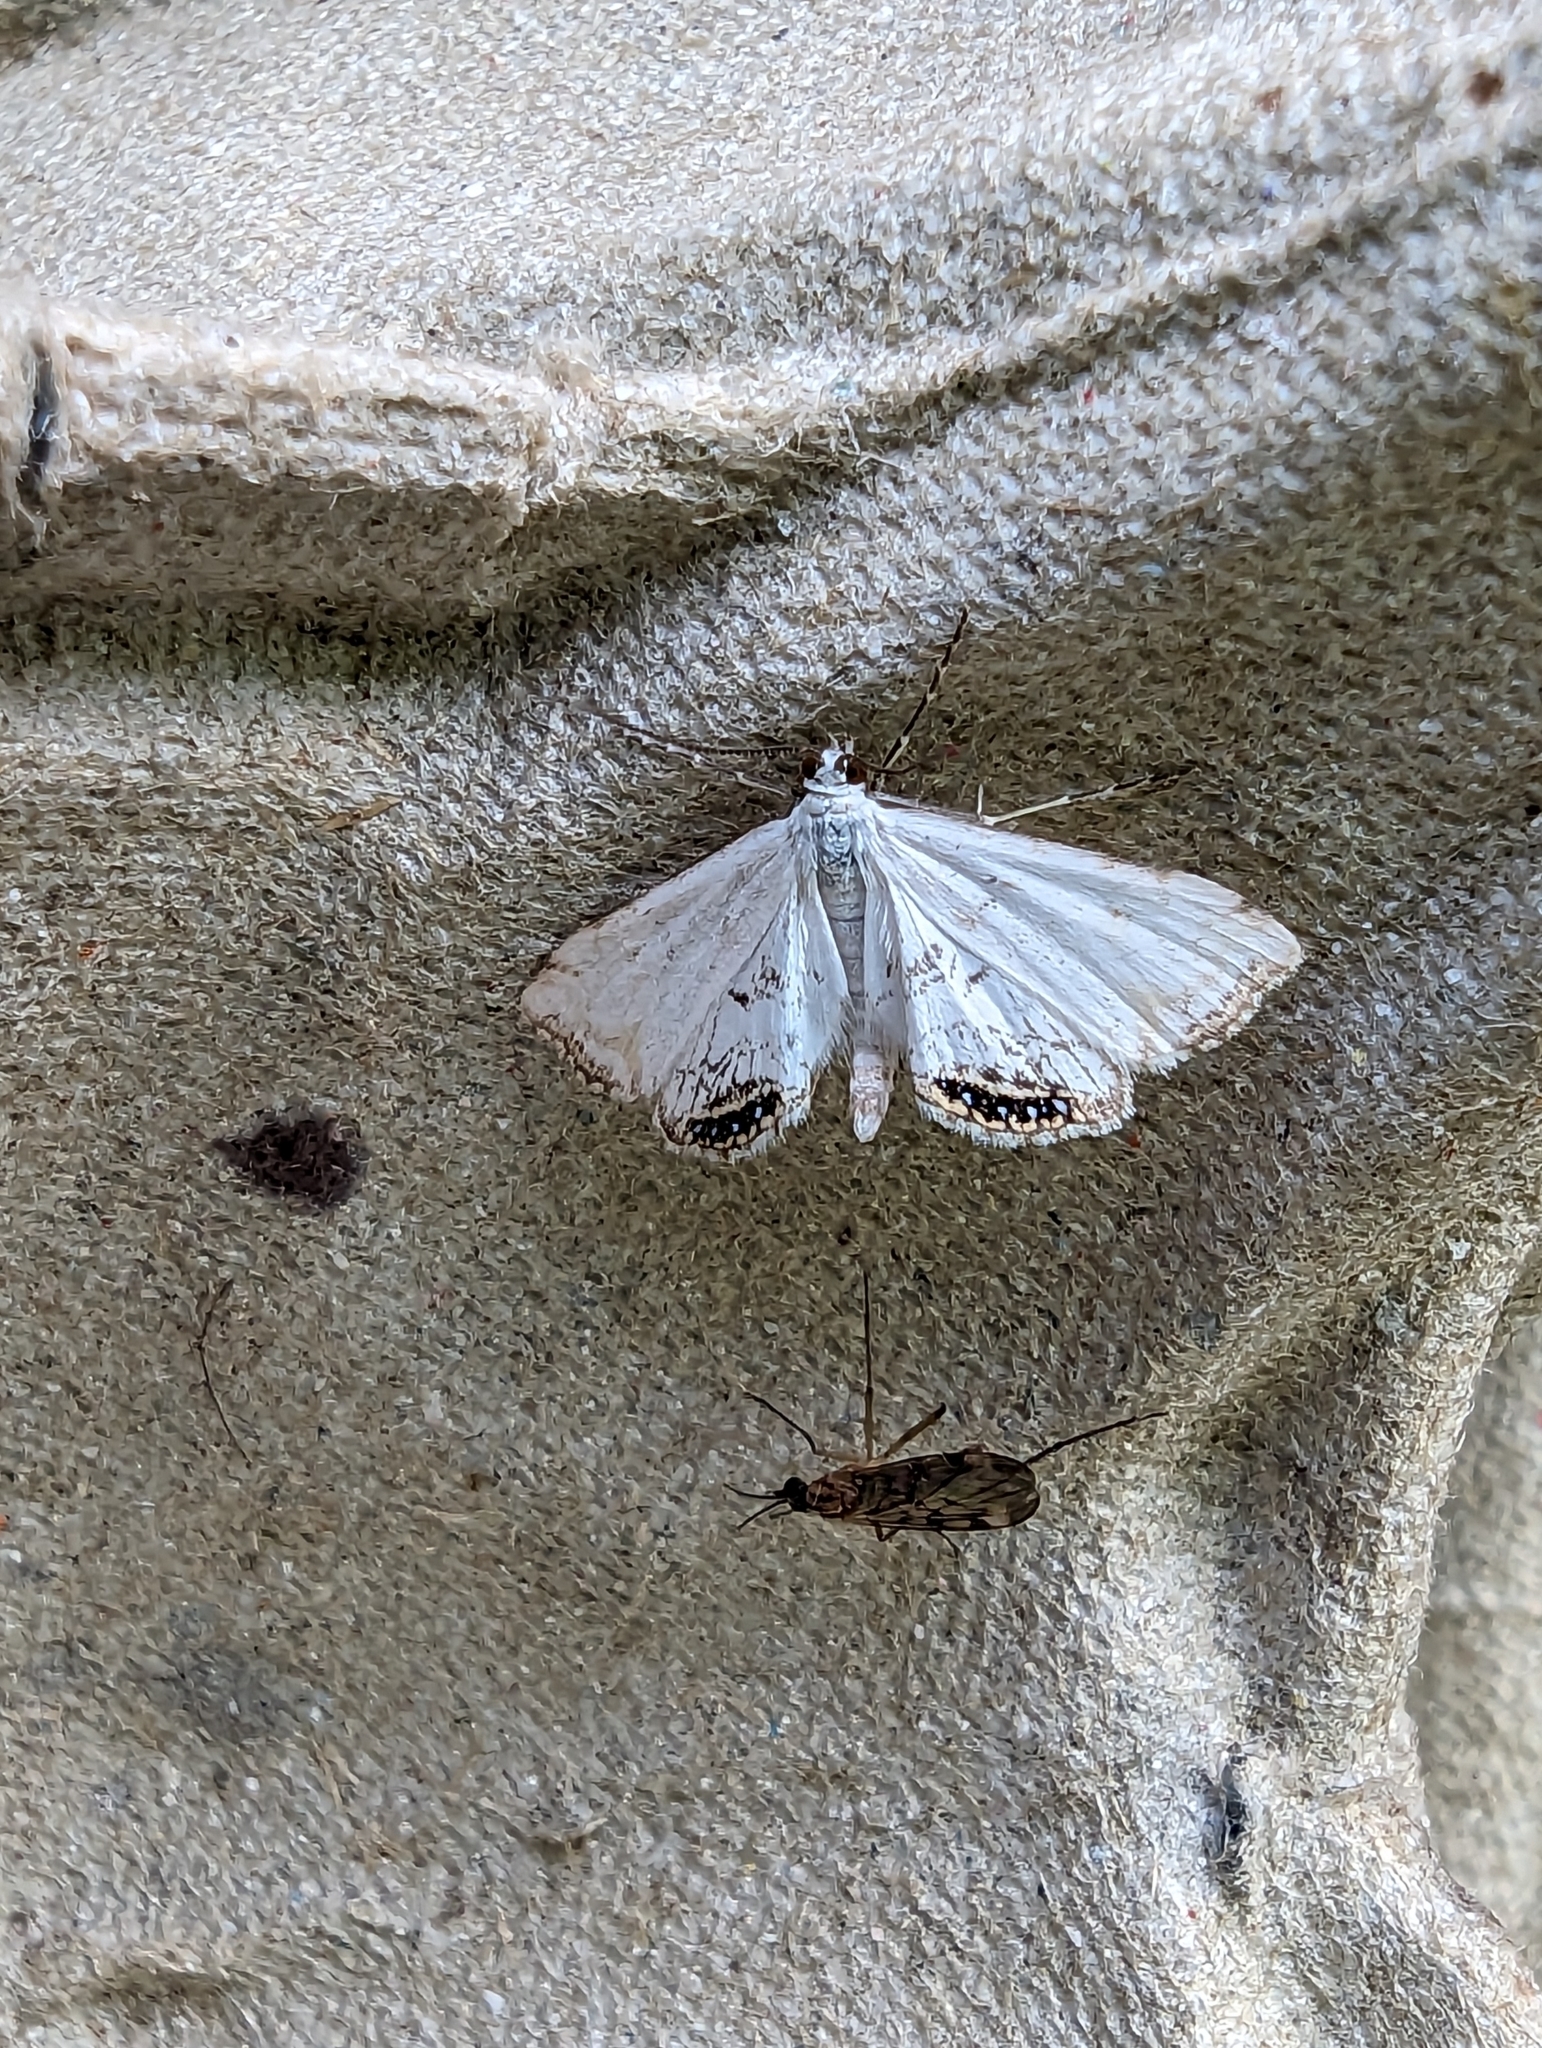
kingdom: Animalia
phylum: Arthropoda
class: Insecta
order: Lepidoptera
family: Crambidae
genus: Cataclysta
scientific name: Cataclysta lemnata
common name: Small china-mark
